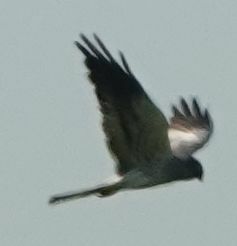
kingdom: Animalia
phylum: Chordata
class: Aves
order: Accipitriformes
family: Accipitridae
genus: Circus
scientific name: Circus pygargus
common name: Montagu's harrier
